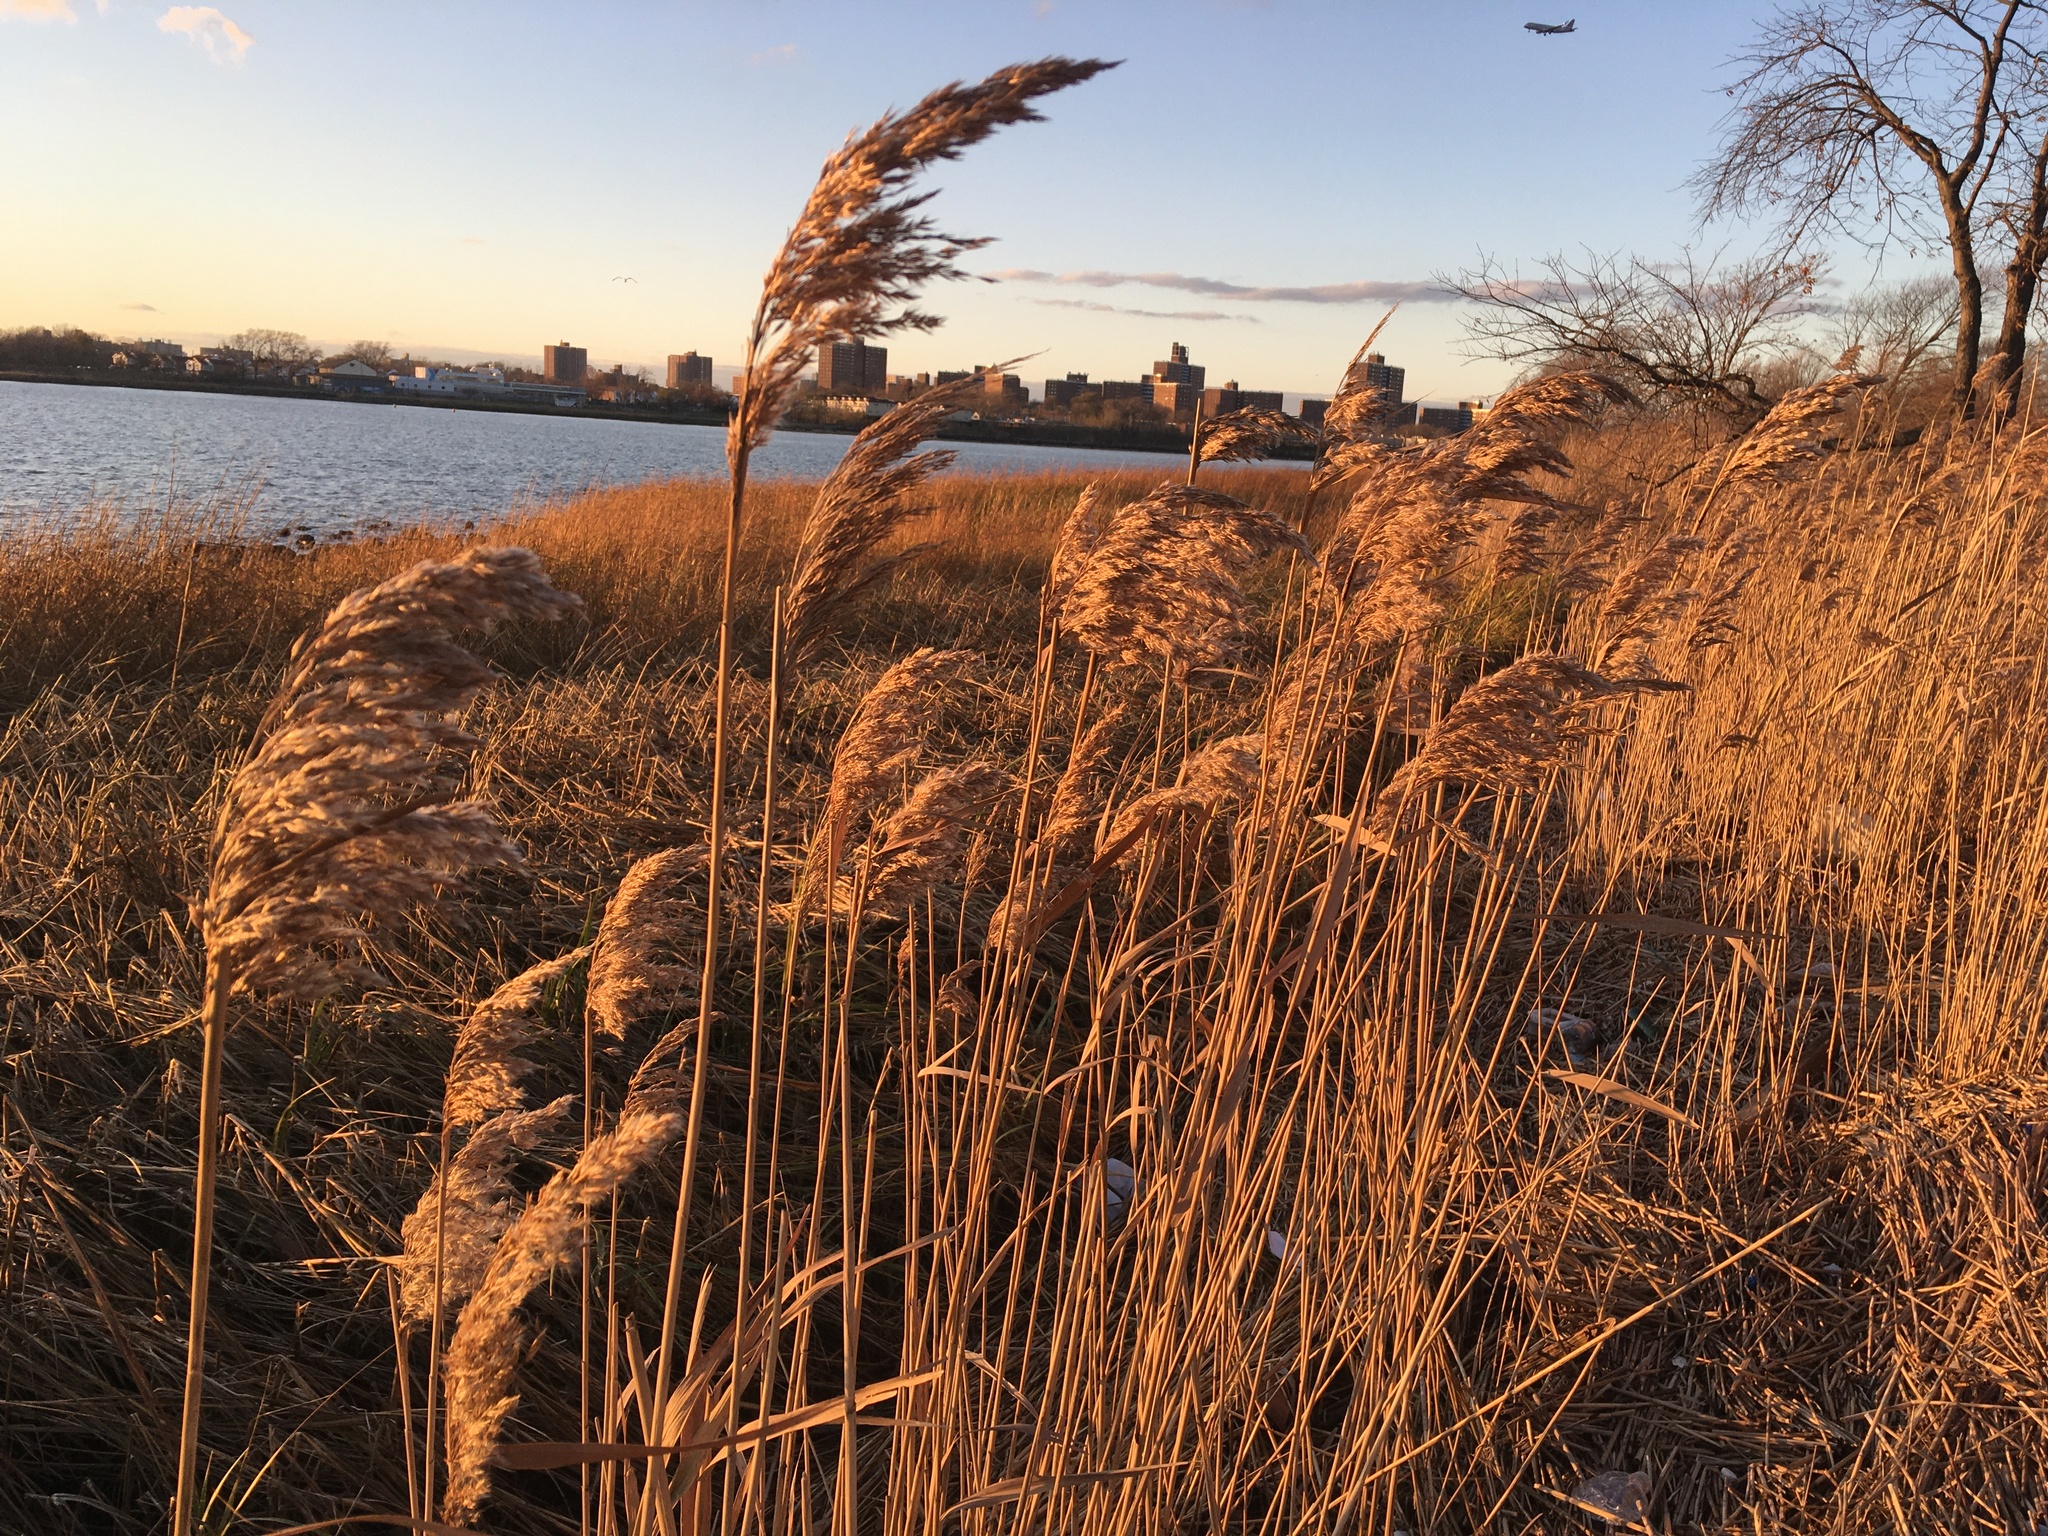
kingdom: Plantae
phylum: Tracheophyta
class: Liliopsida
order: Poales
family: Poaceae
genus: Phragmites
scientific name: Phragmites australis
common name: Common reed
